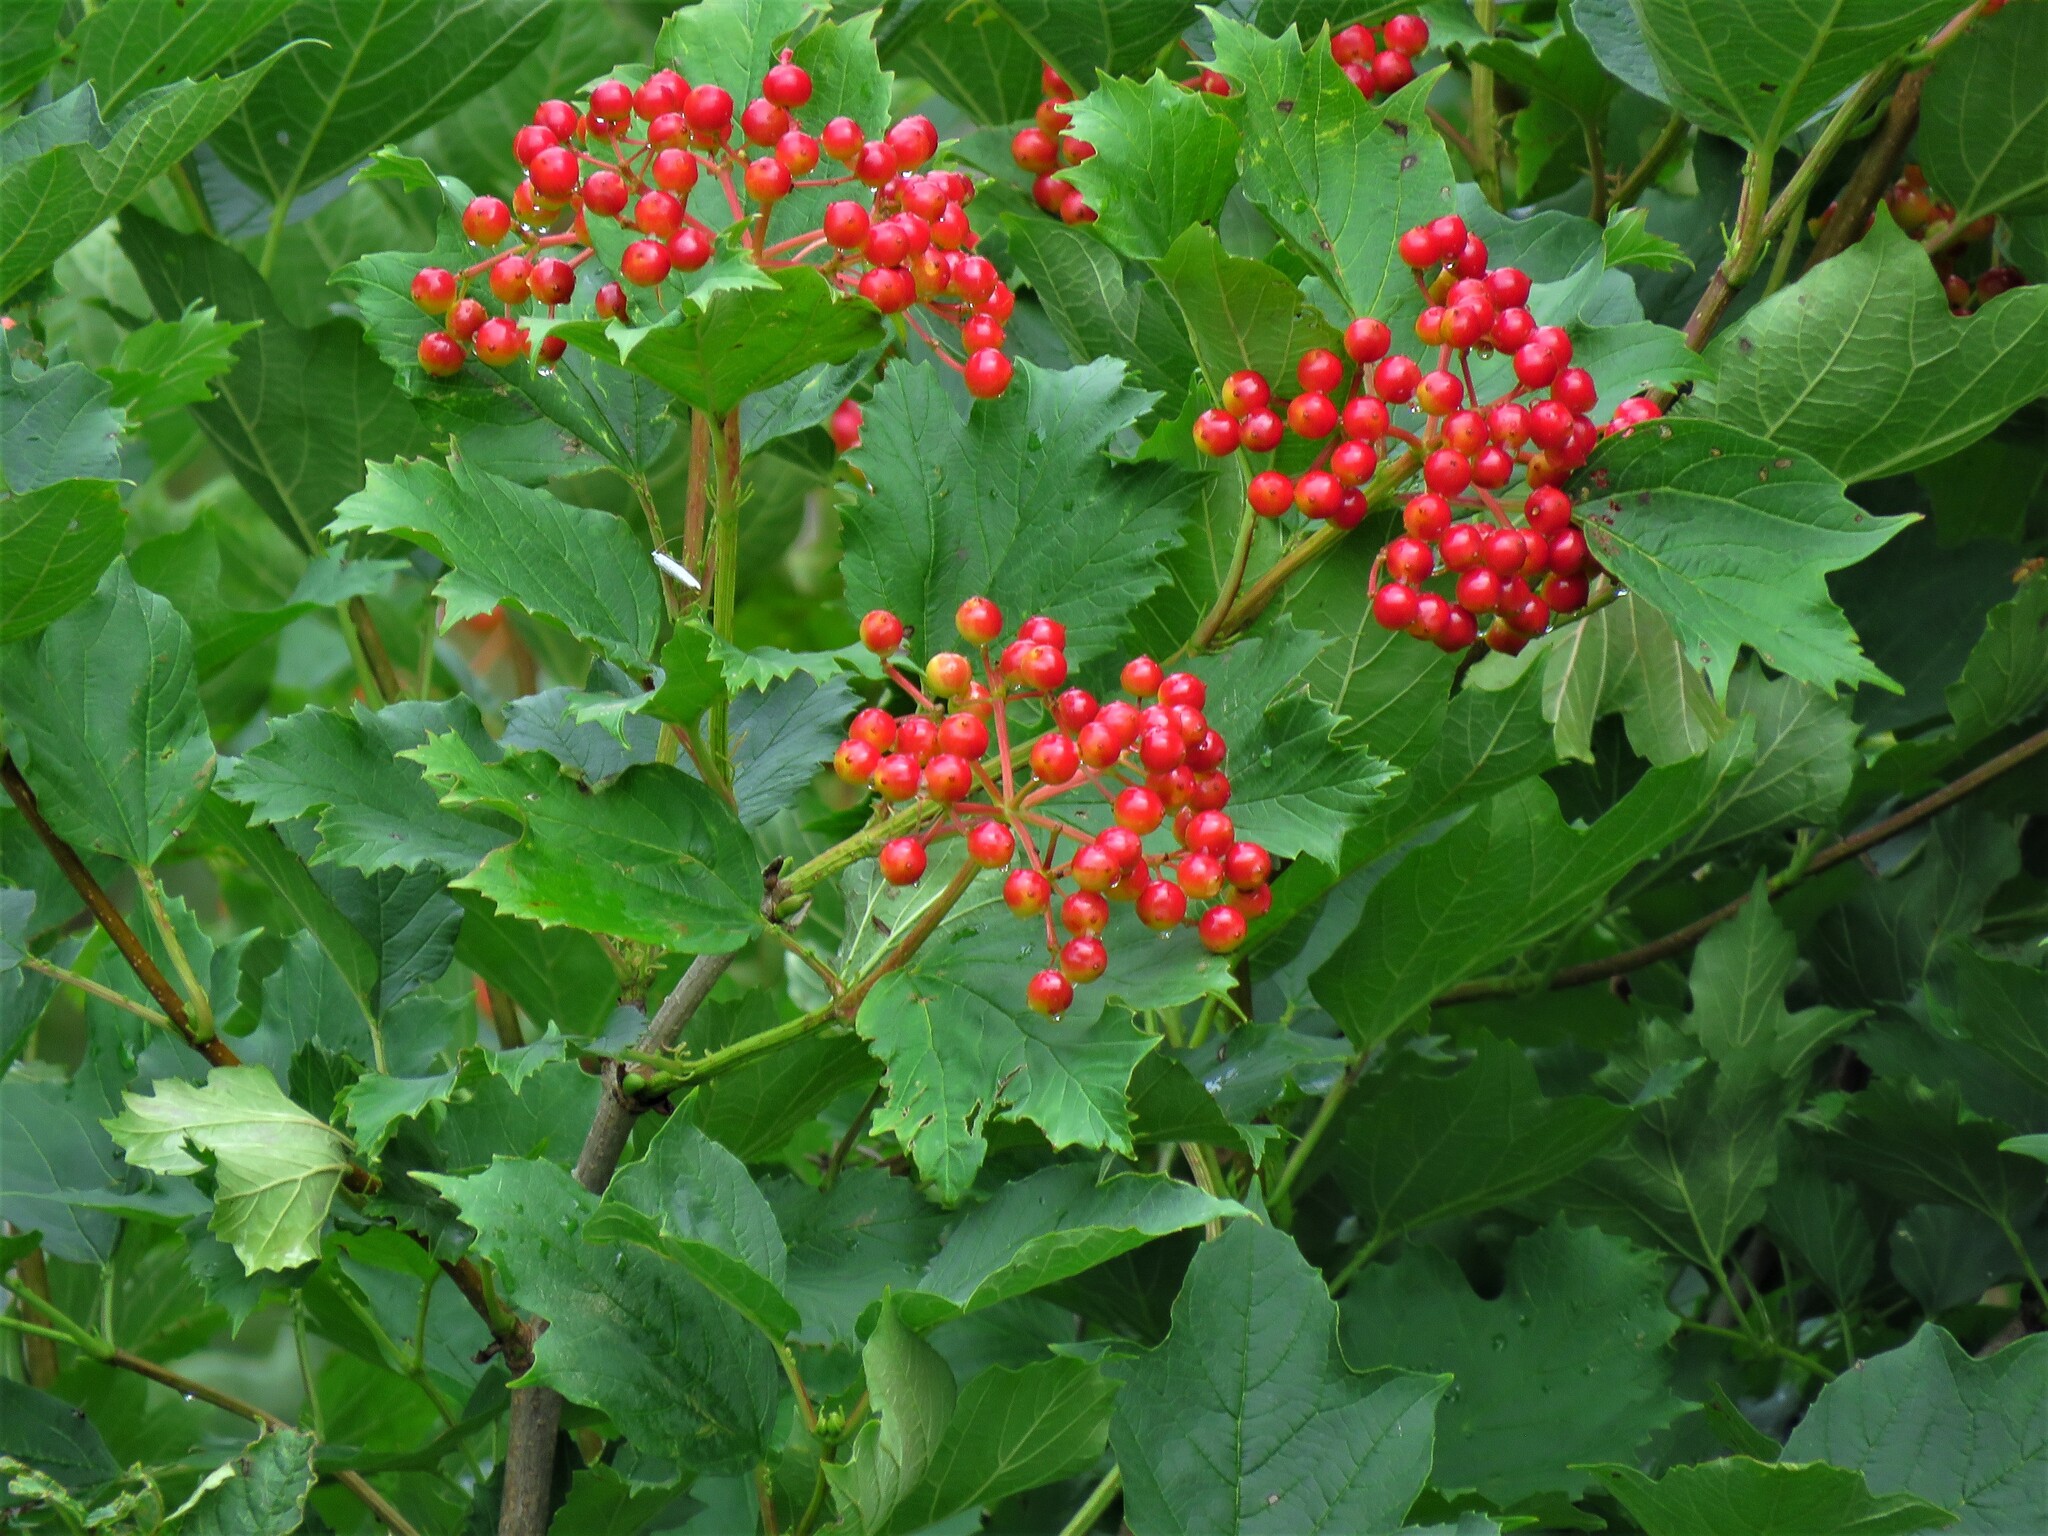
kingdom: Plantae
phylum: Tracheophyta
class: Magnoliopsida
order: Dipsacales
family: Viburnaceae
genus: Viburnum
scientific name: Viburnum opulus
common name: Guelder-rose
